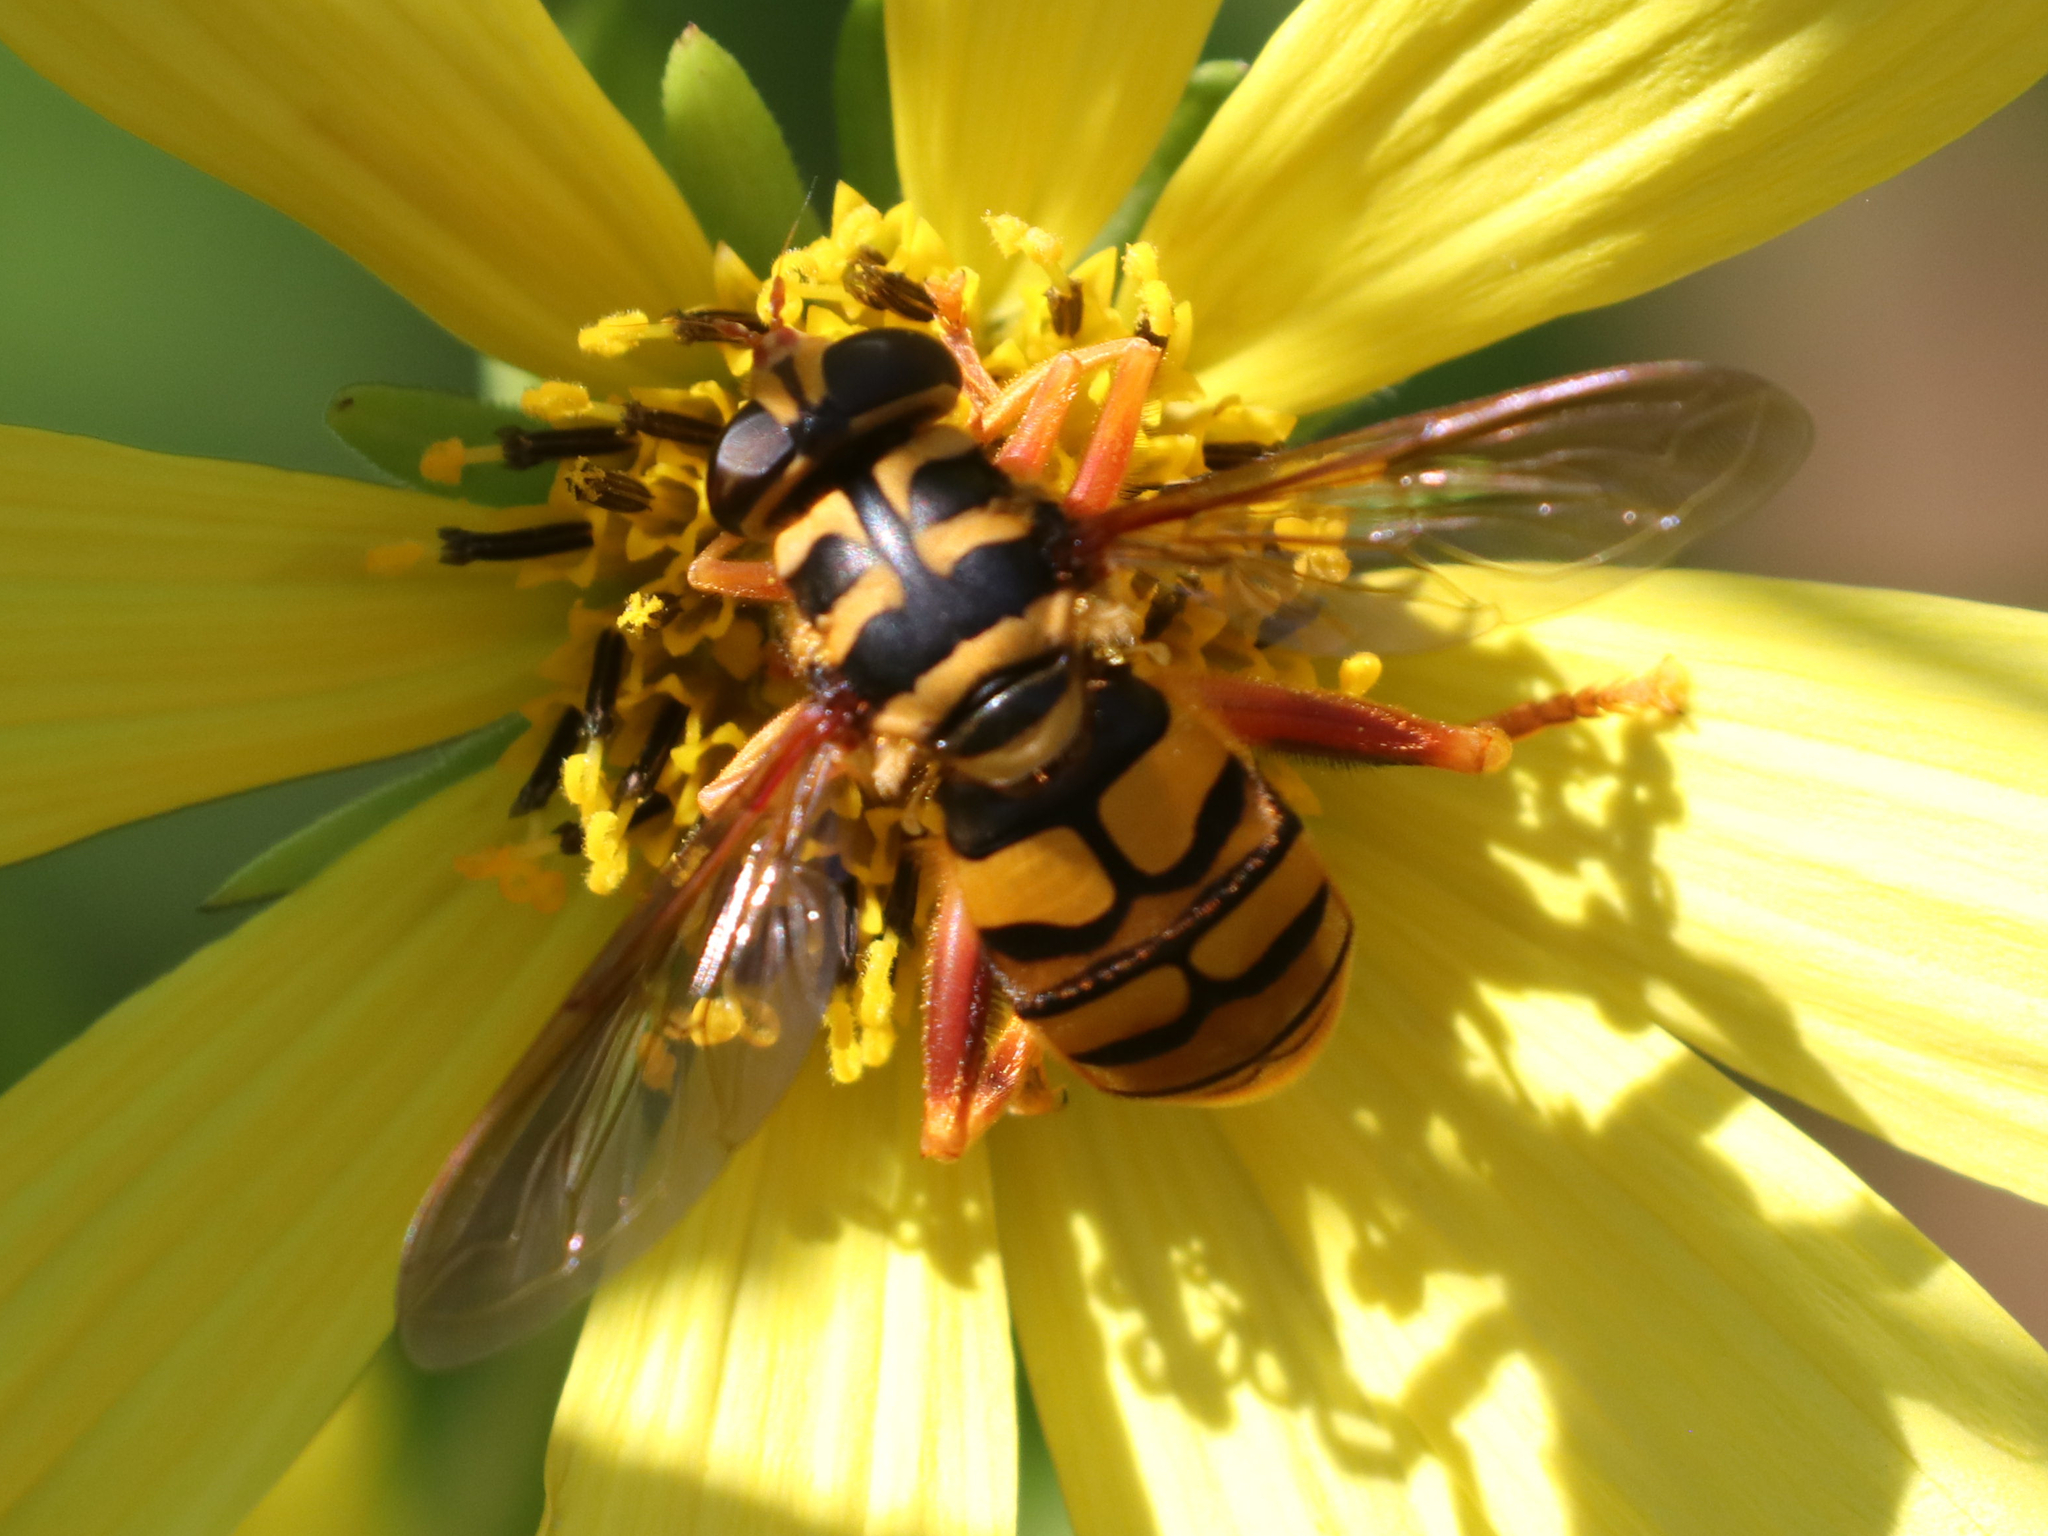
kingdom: Animalia
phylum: Arthropoda
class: Insecta
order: Diptera
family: Syrphidae
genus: Milesia
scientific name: Milesia virginiensis
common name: Virginia giant
